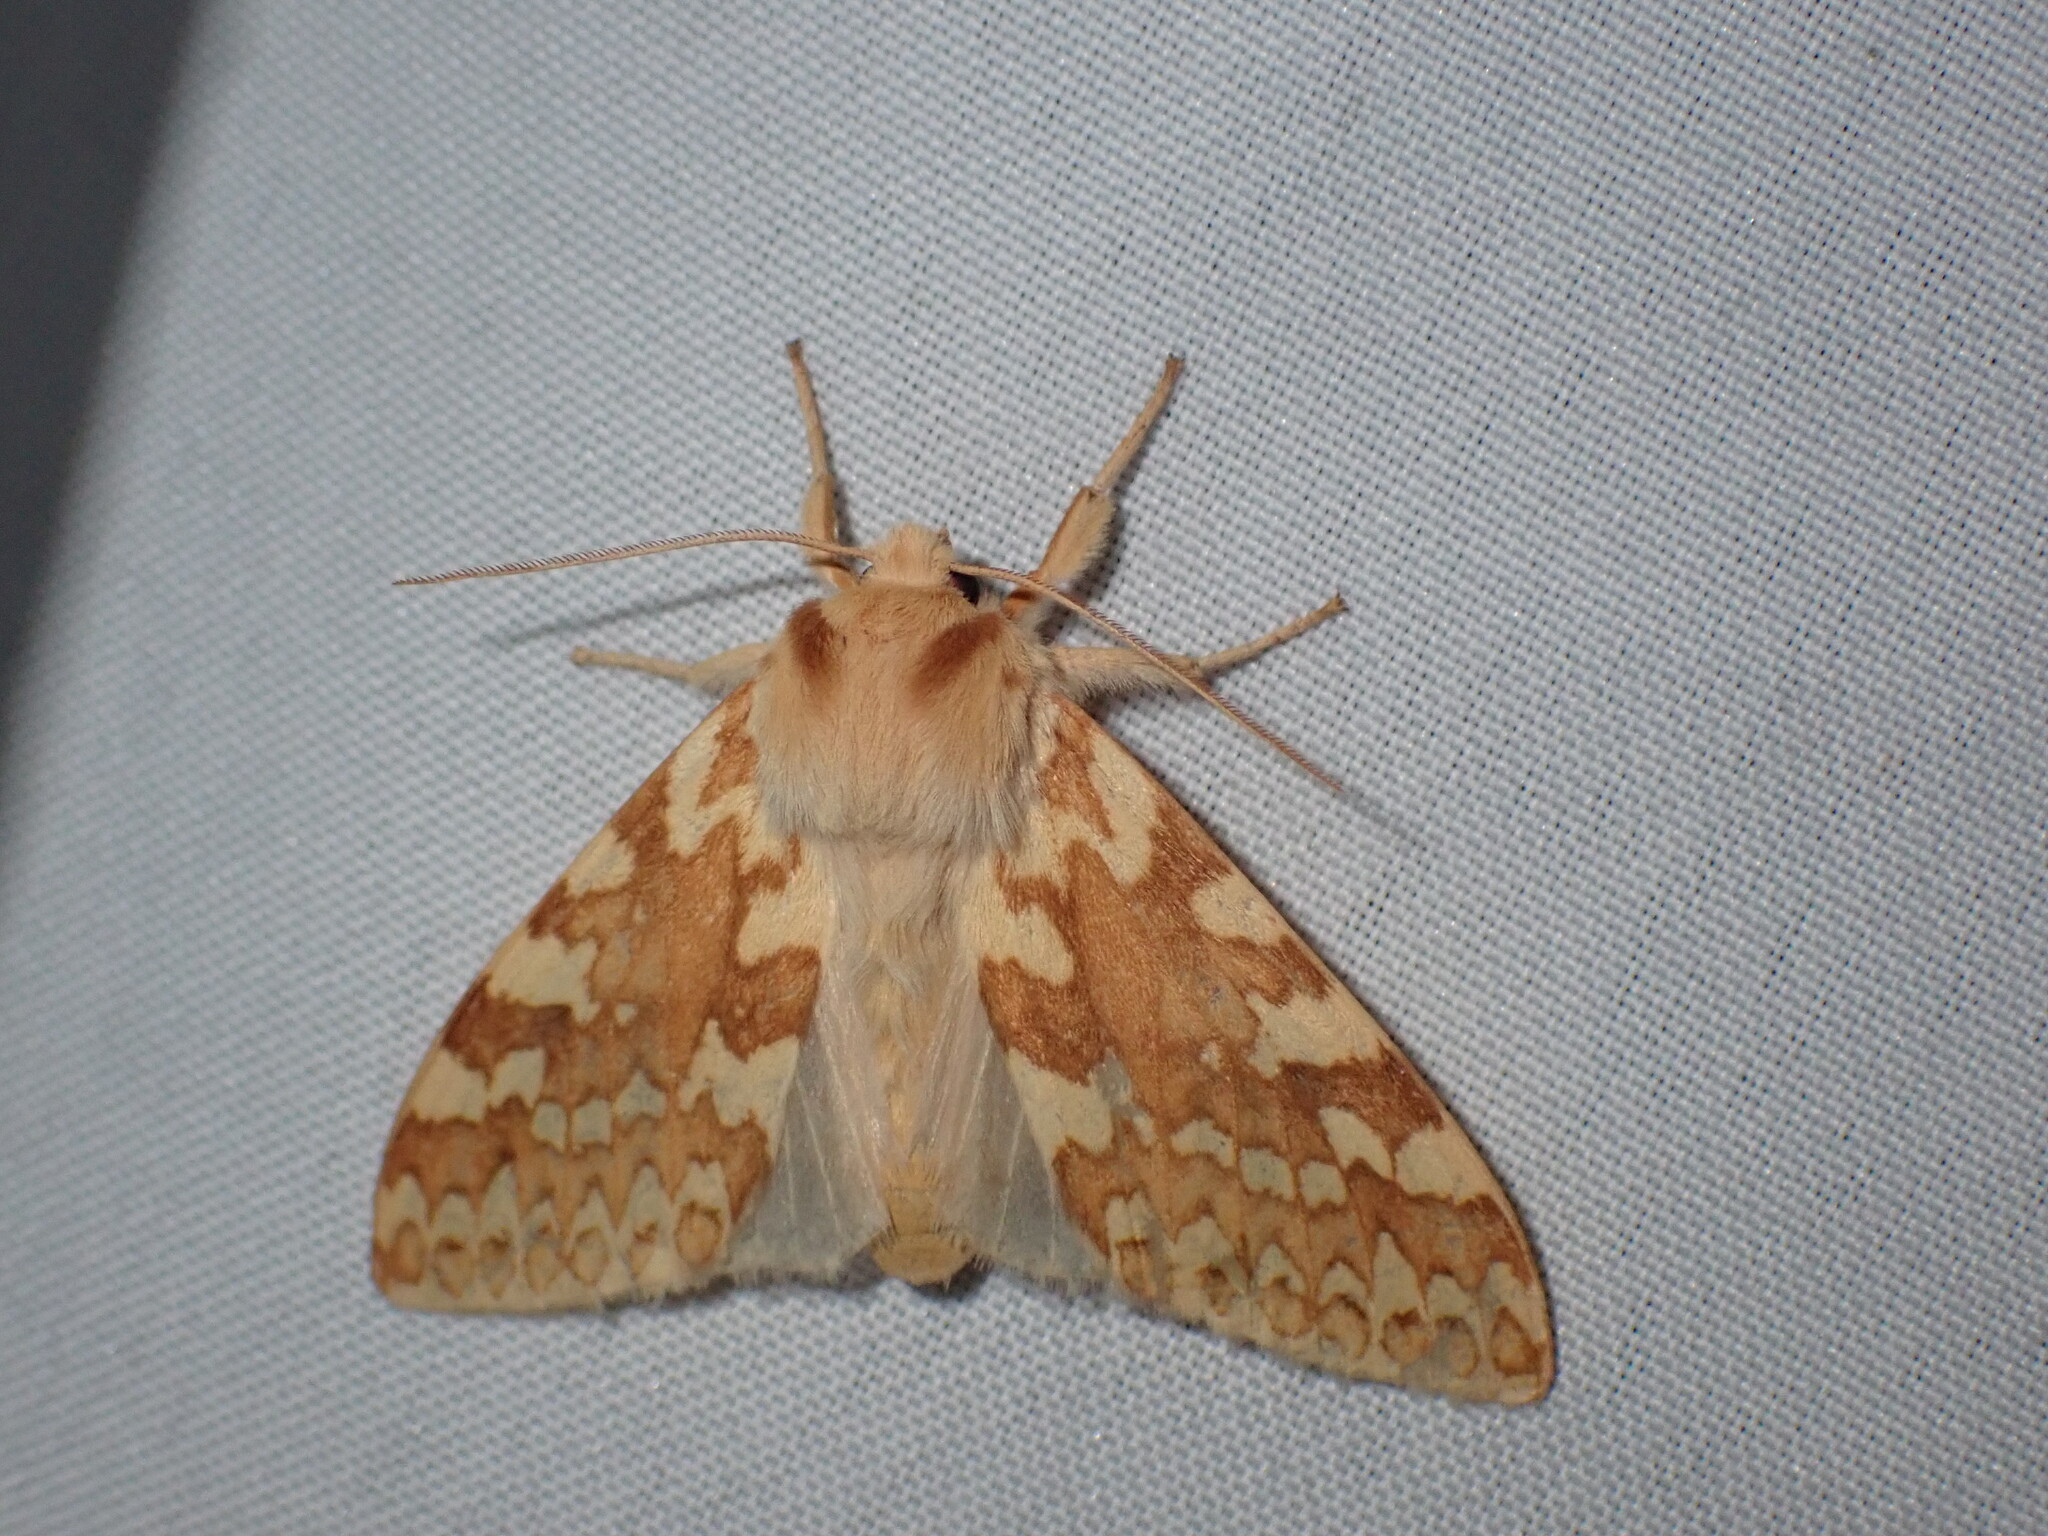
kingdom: Animalia
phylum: Arthropoda
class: Insecta
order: Lepidoptera
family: Erebidae
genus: Lophocampa
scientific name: Lophocampa maculata
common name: Spotted tussock moth
